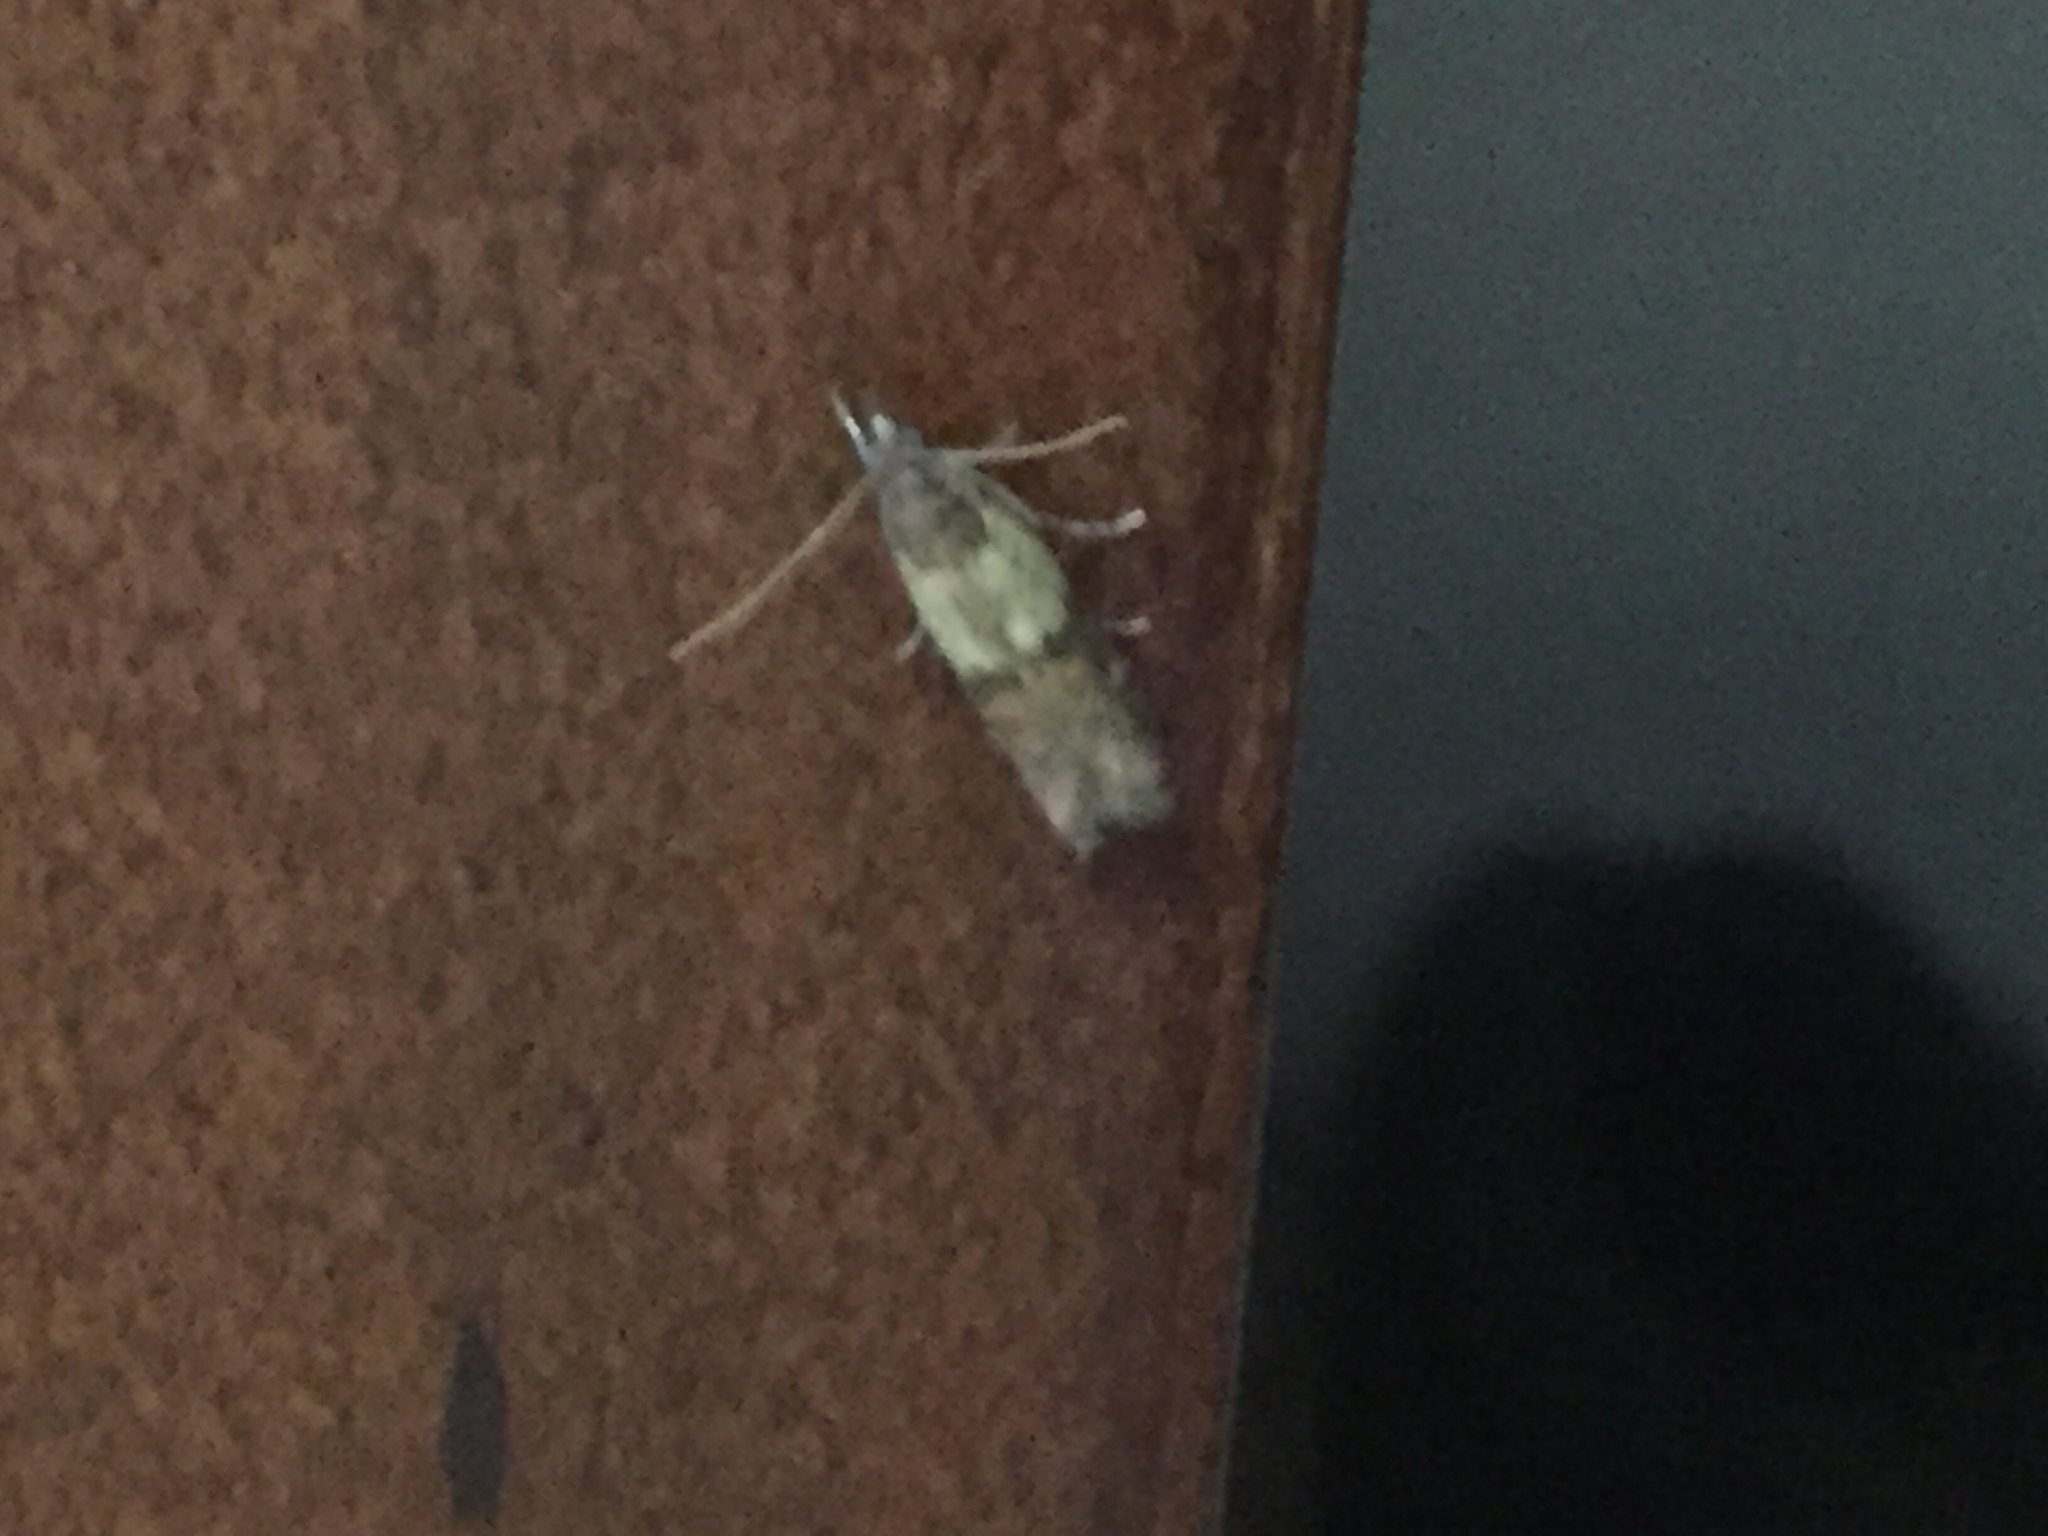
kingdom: Animalia
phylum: Arthropoda
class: Insecta
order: Lepidoptera
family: Pyralidae
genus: Plodia
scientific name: Plodia interpunctella
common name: Indian meal moth
